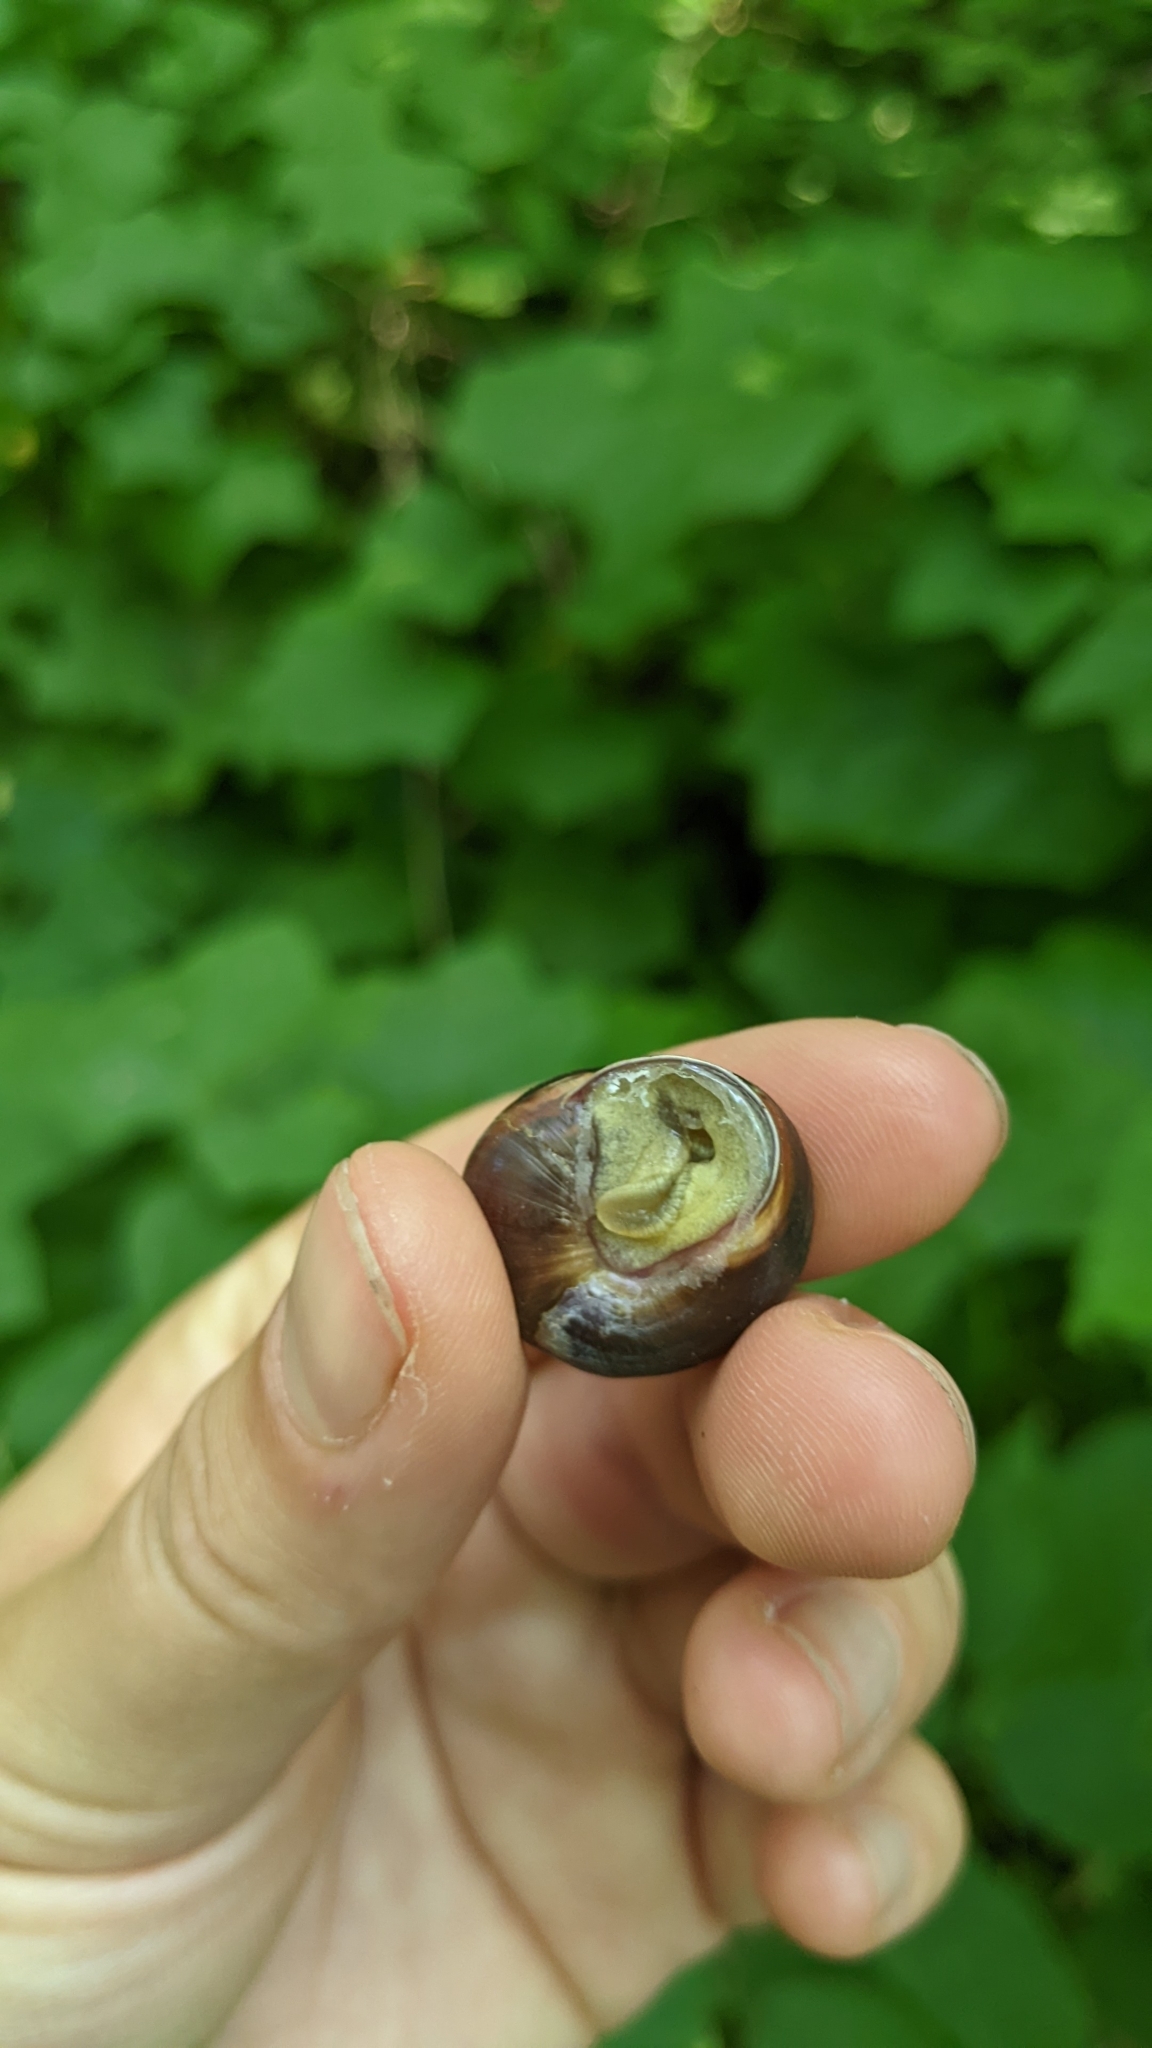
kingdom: Animalia
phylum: Mollusca
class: Gastropoda
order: Stylommatophora
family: Helicidae
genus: Cepaea
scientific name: Cepaea nemoralis
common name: Grovesnail
